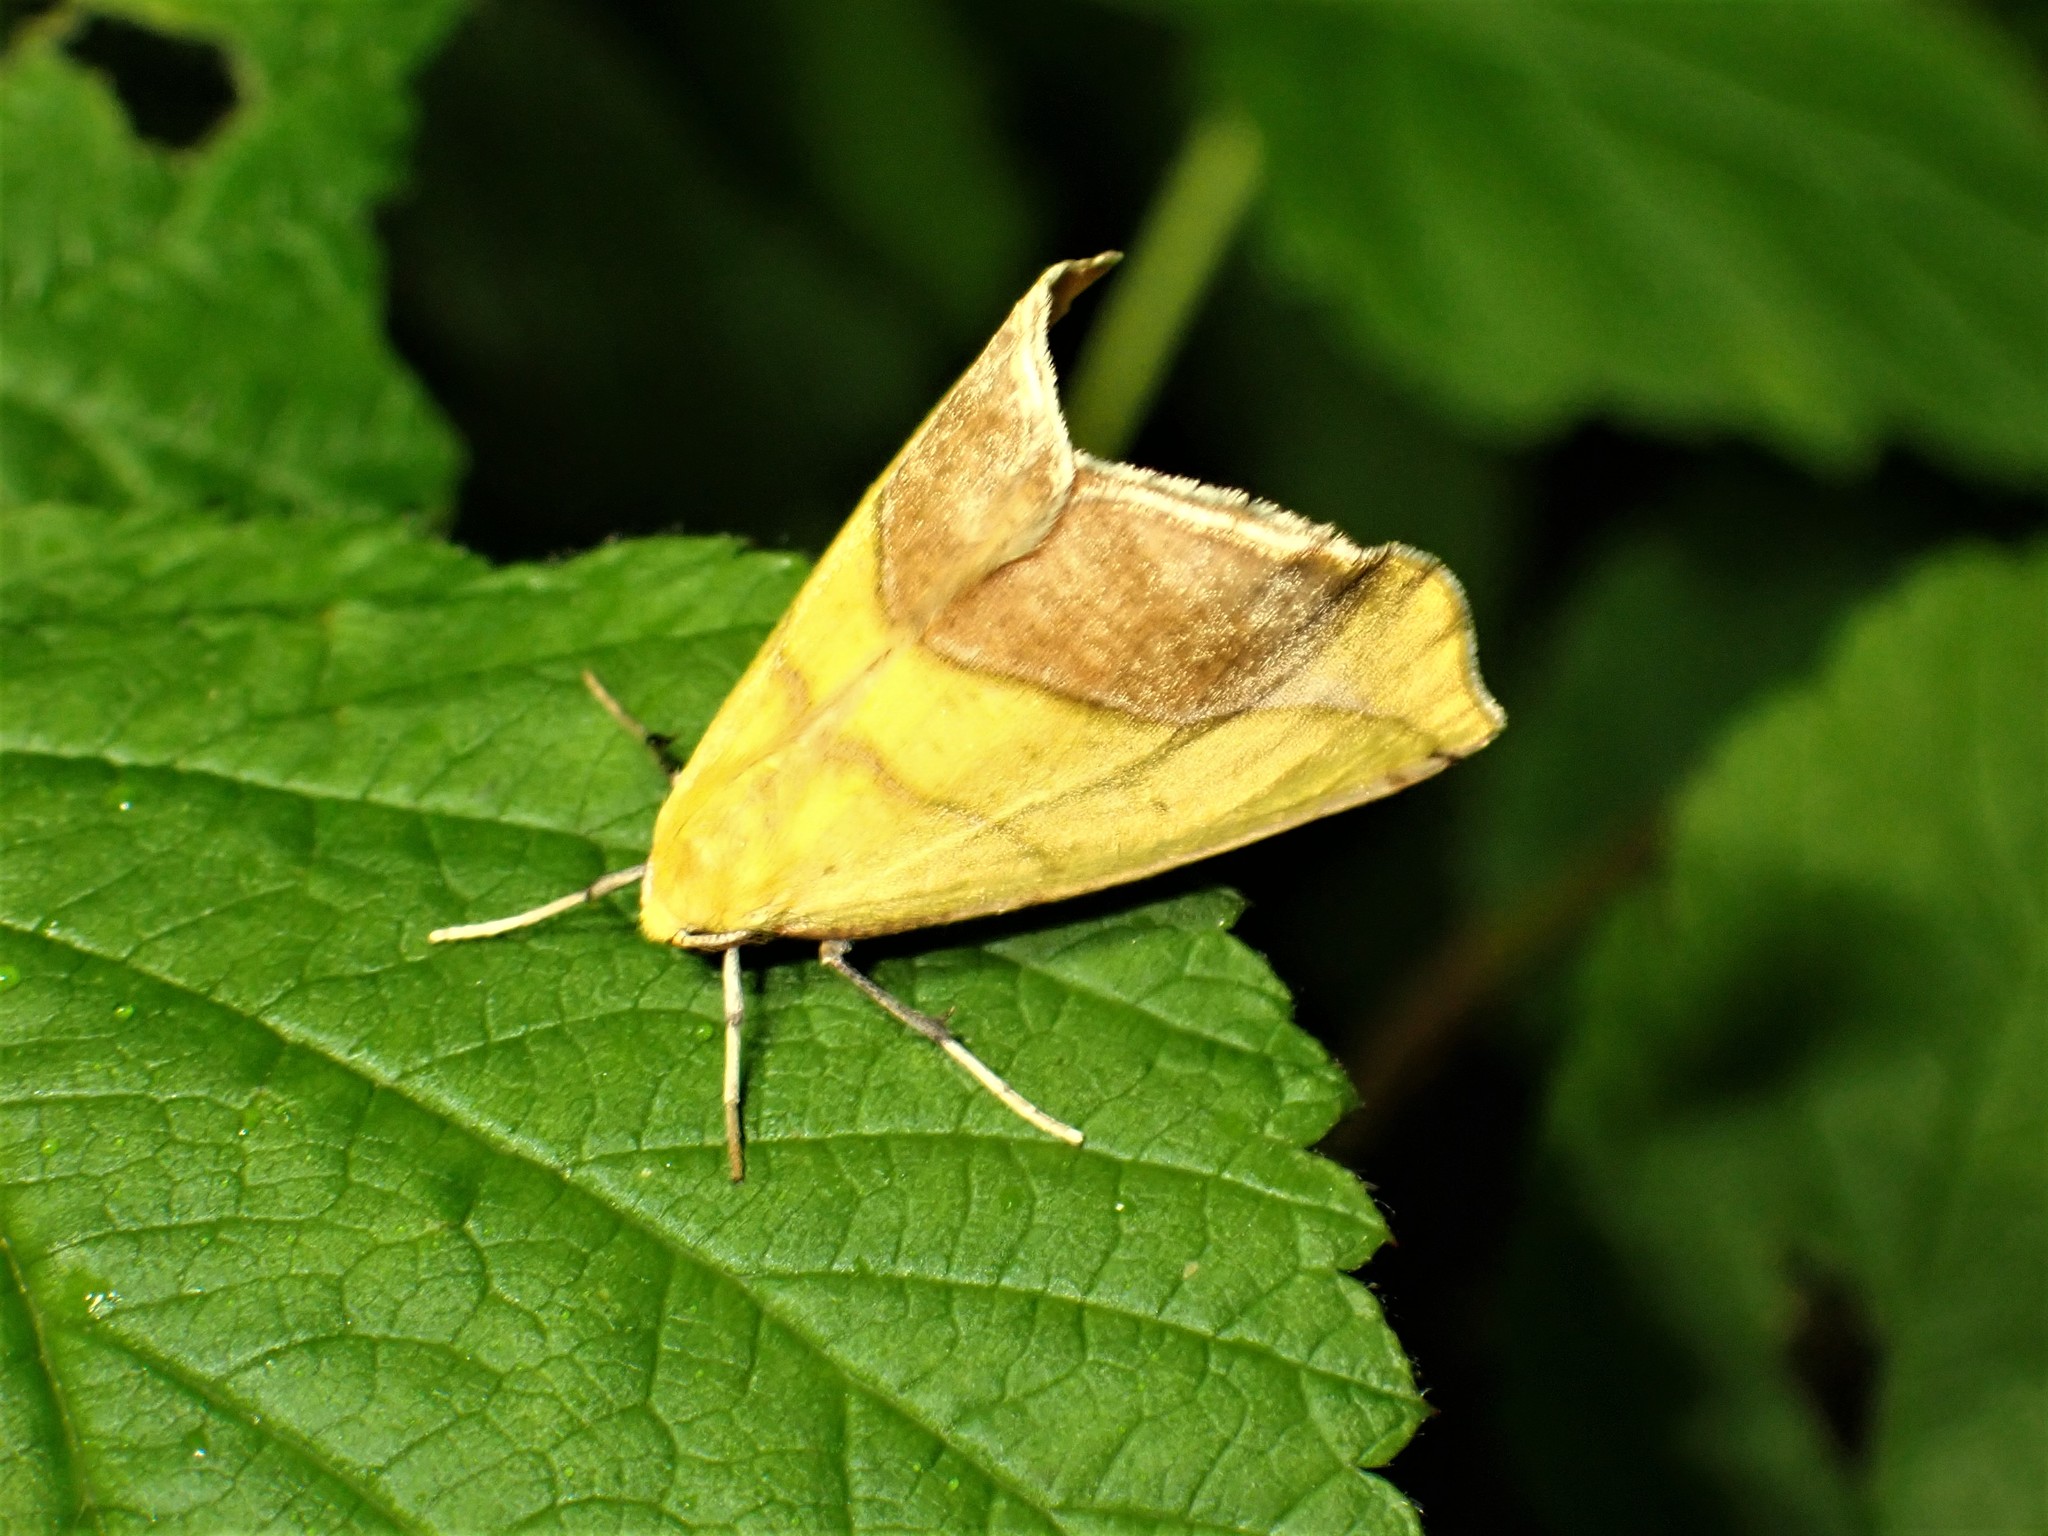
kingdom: Animalia
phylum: Arthropoda
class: Insecta
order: Lepidoptera
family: Geometridae
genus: Sicya
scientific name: Sicya macularia
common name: Sharp-lined yellow
